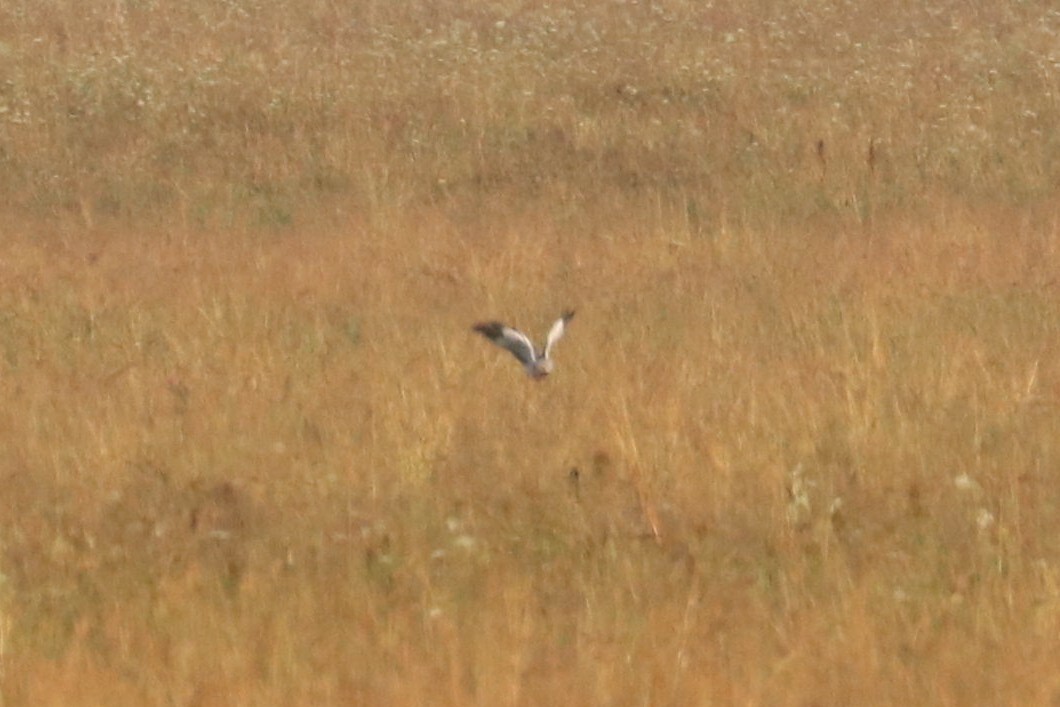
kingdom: Animalia
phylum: Chordata
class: Aves
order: Accipitriformes
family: Accipitridae
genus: Circus
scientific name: Circus cyaneus
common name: Hen harrier
